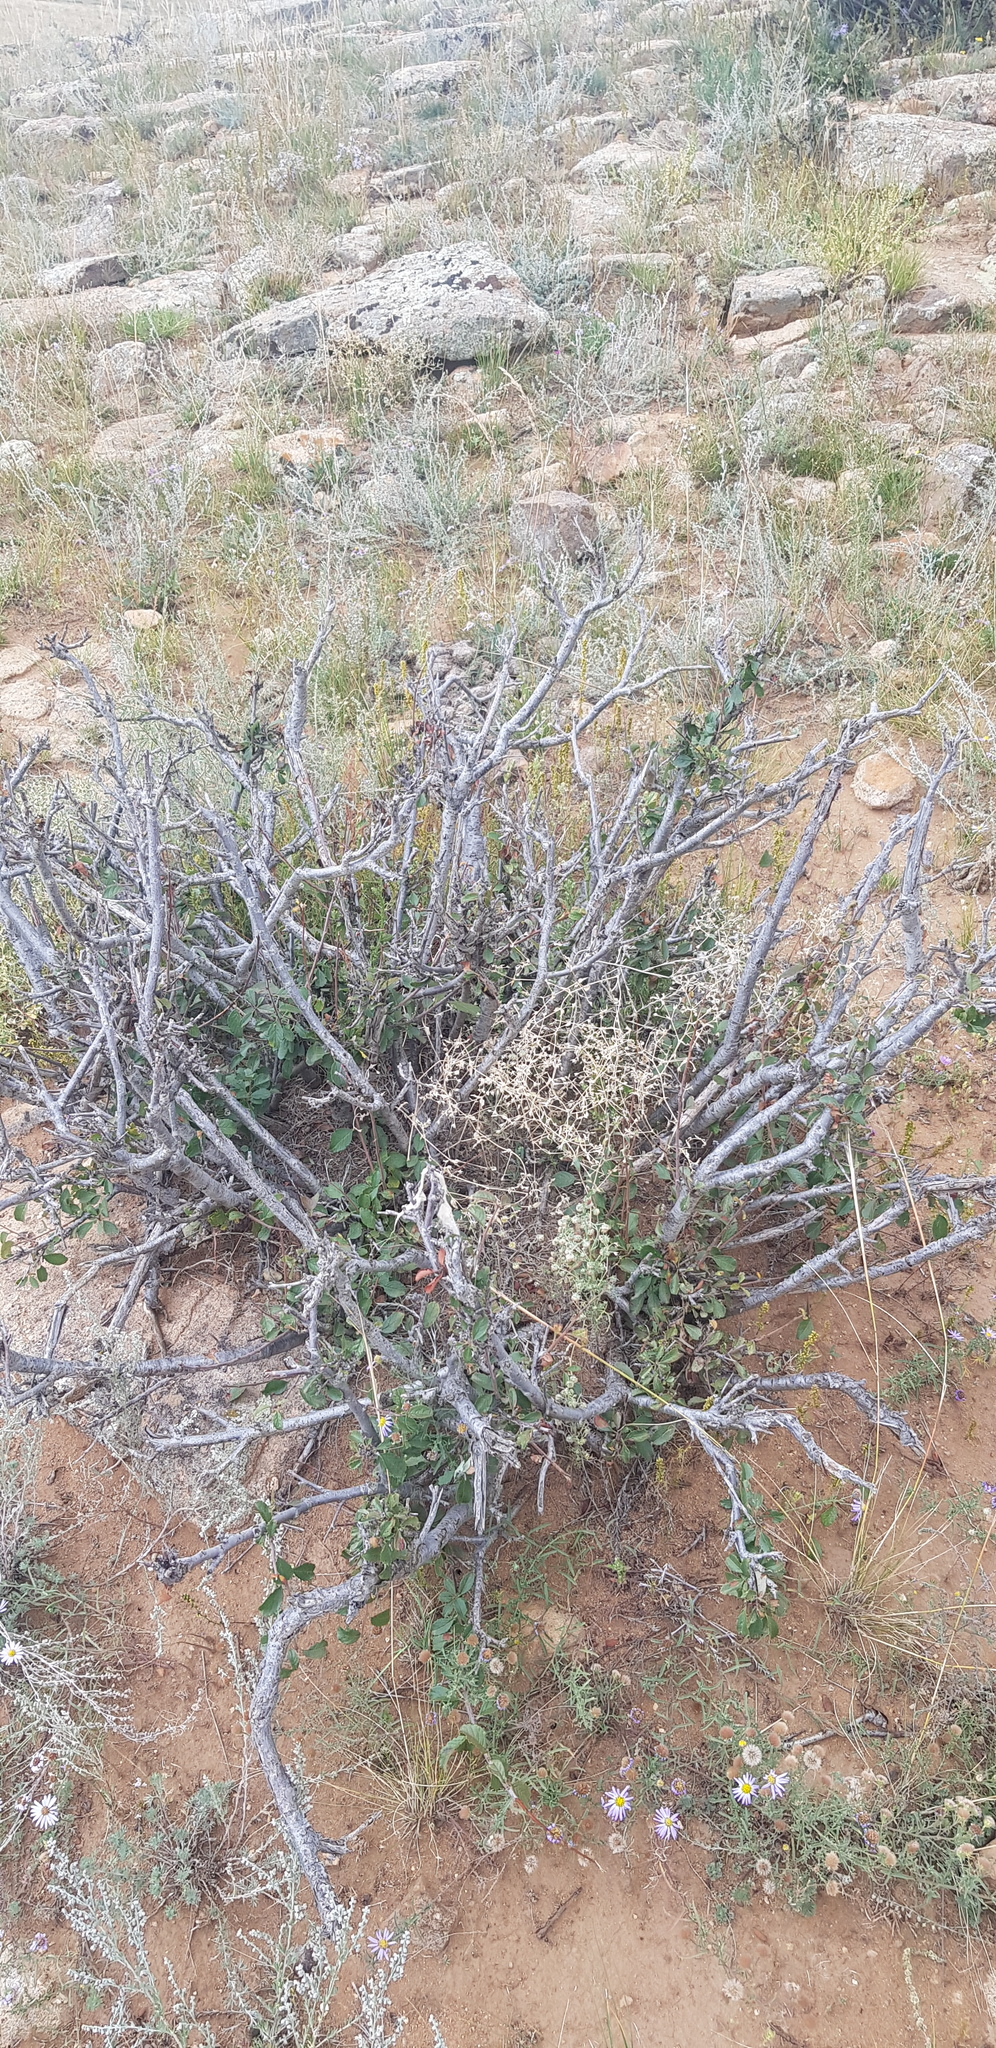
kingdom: Plantae
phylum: Tracheophyta
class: Magnoliopsida
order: Rosales
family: Rosaceae
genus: Prunus
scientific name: Prunus pedunculata
